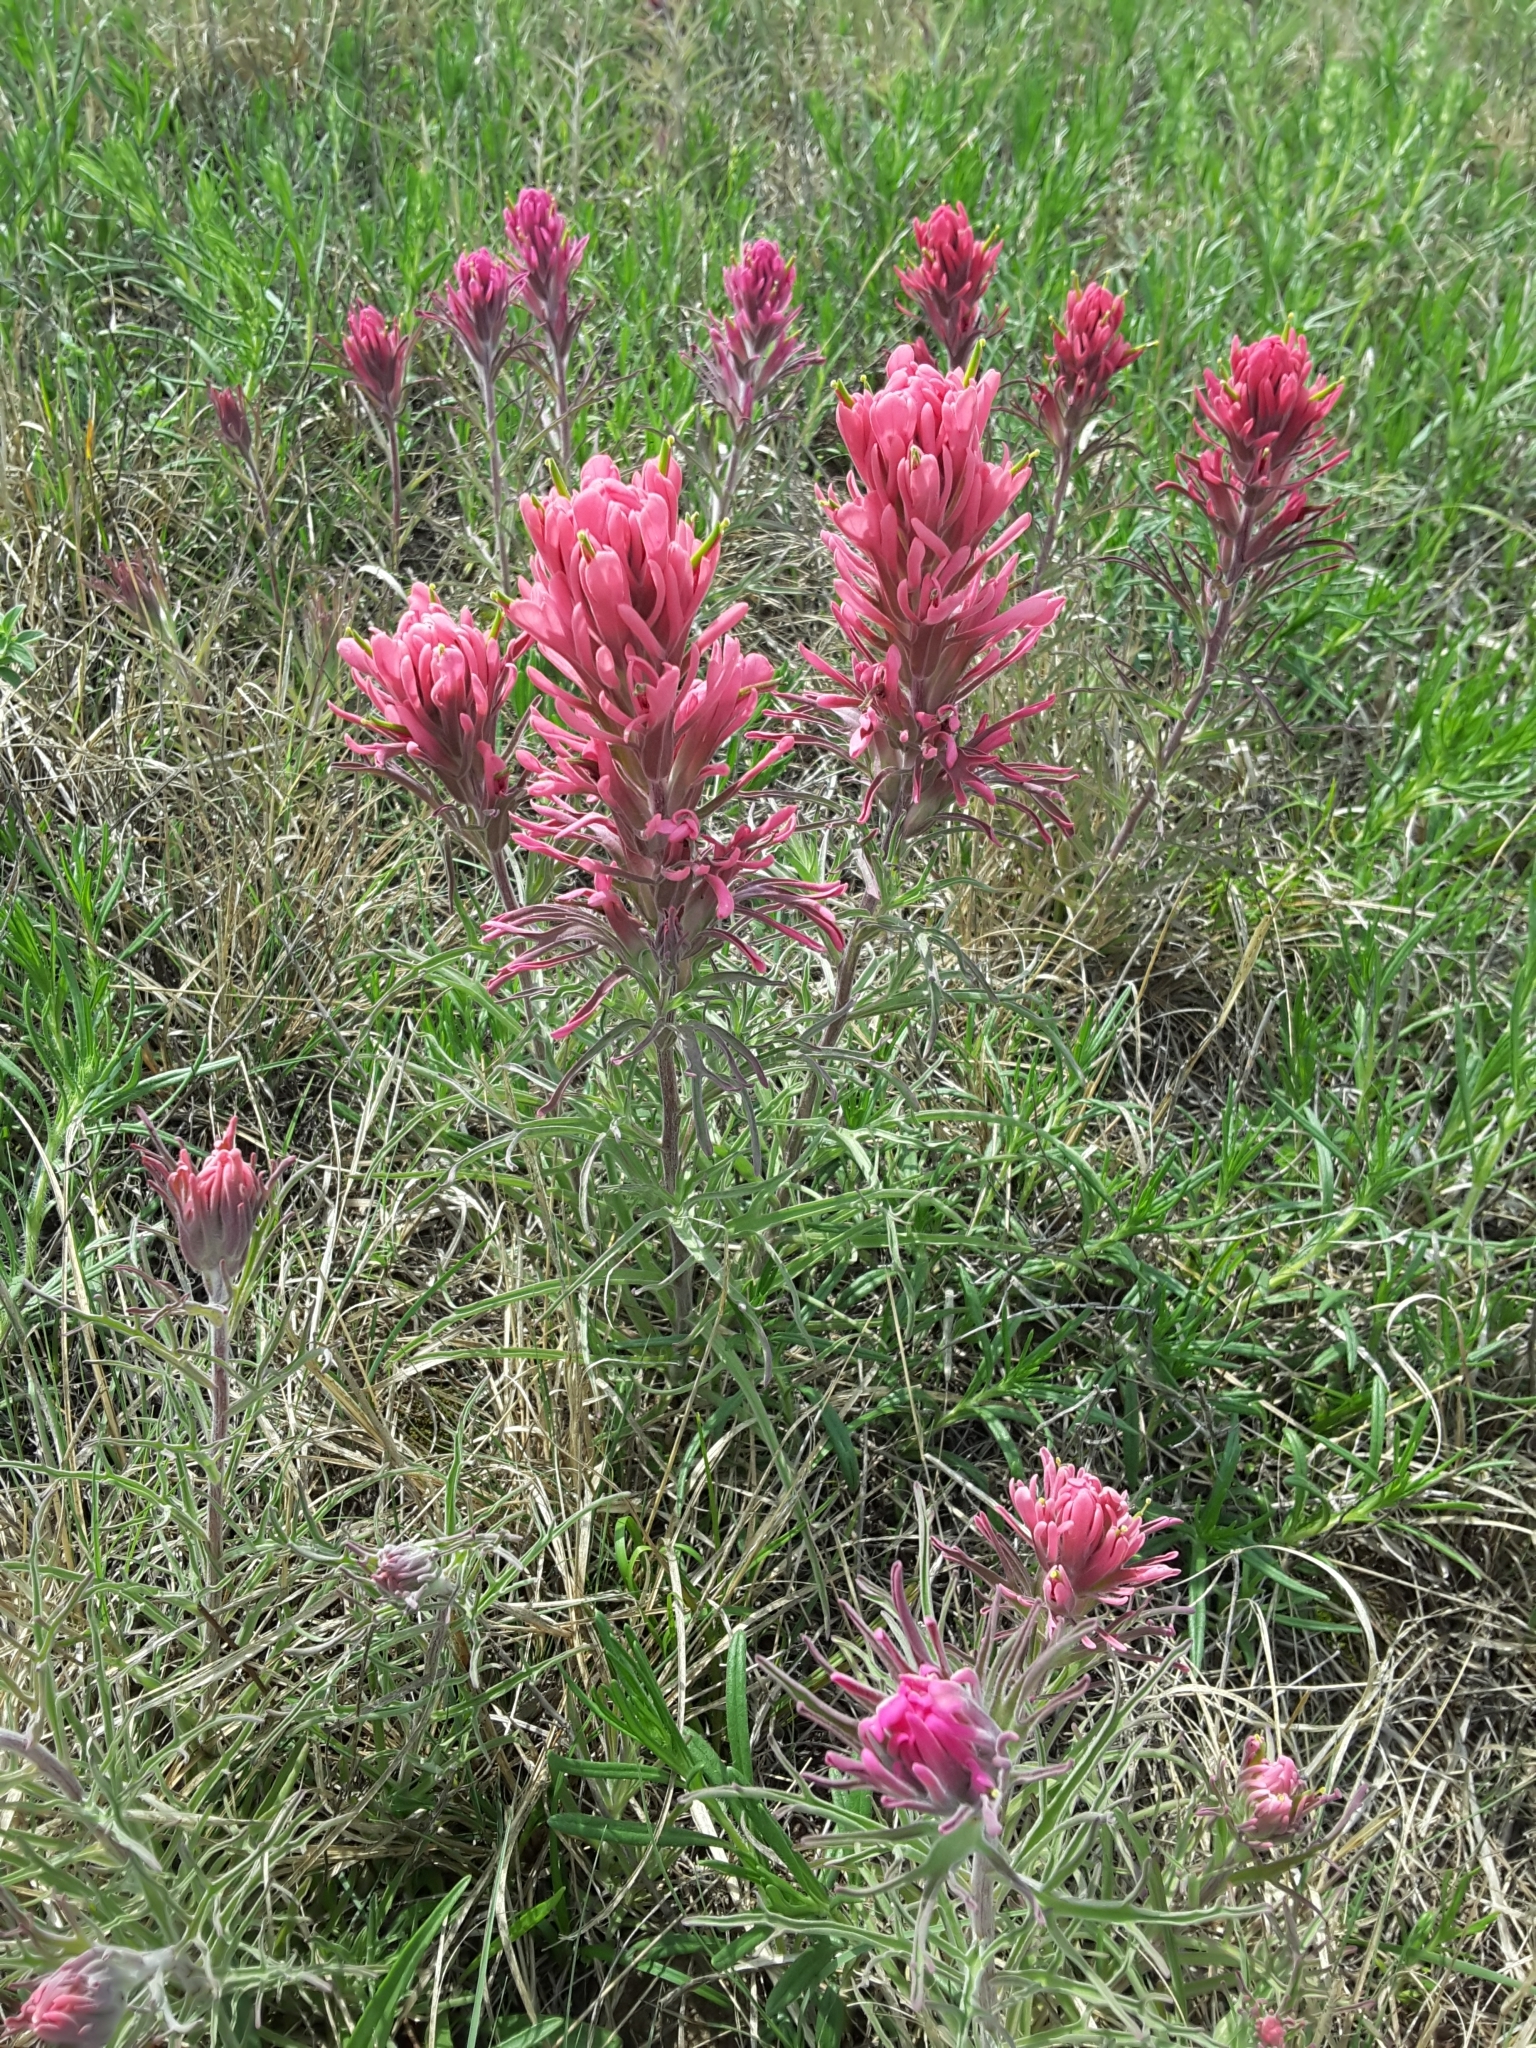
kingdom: Plantae
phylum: Tracheophyta
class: Magnoliopsida
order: Lamiales
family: Orobanchaceae
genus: Castilleja
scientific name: Castilleja purpurea
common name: Plains paintbrush
